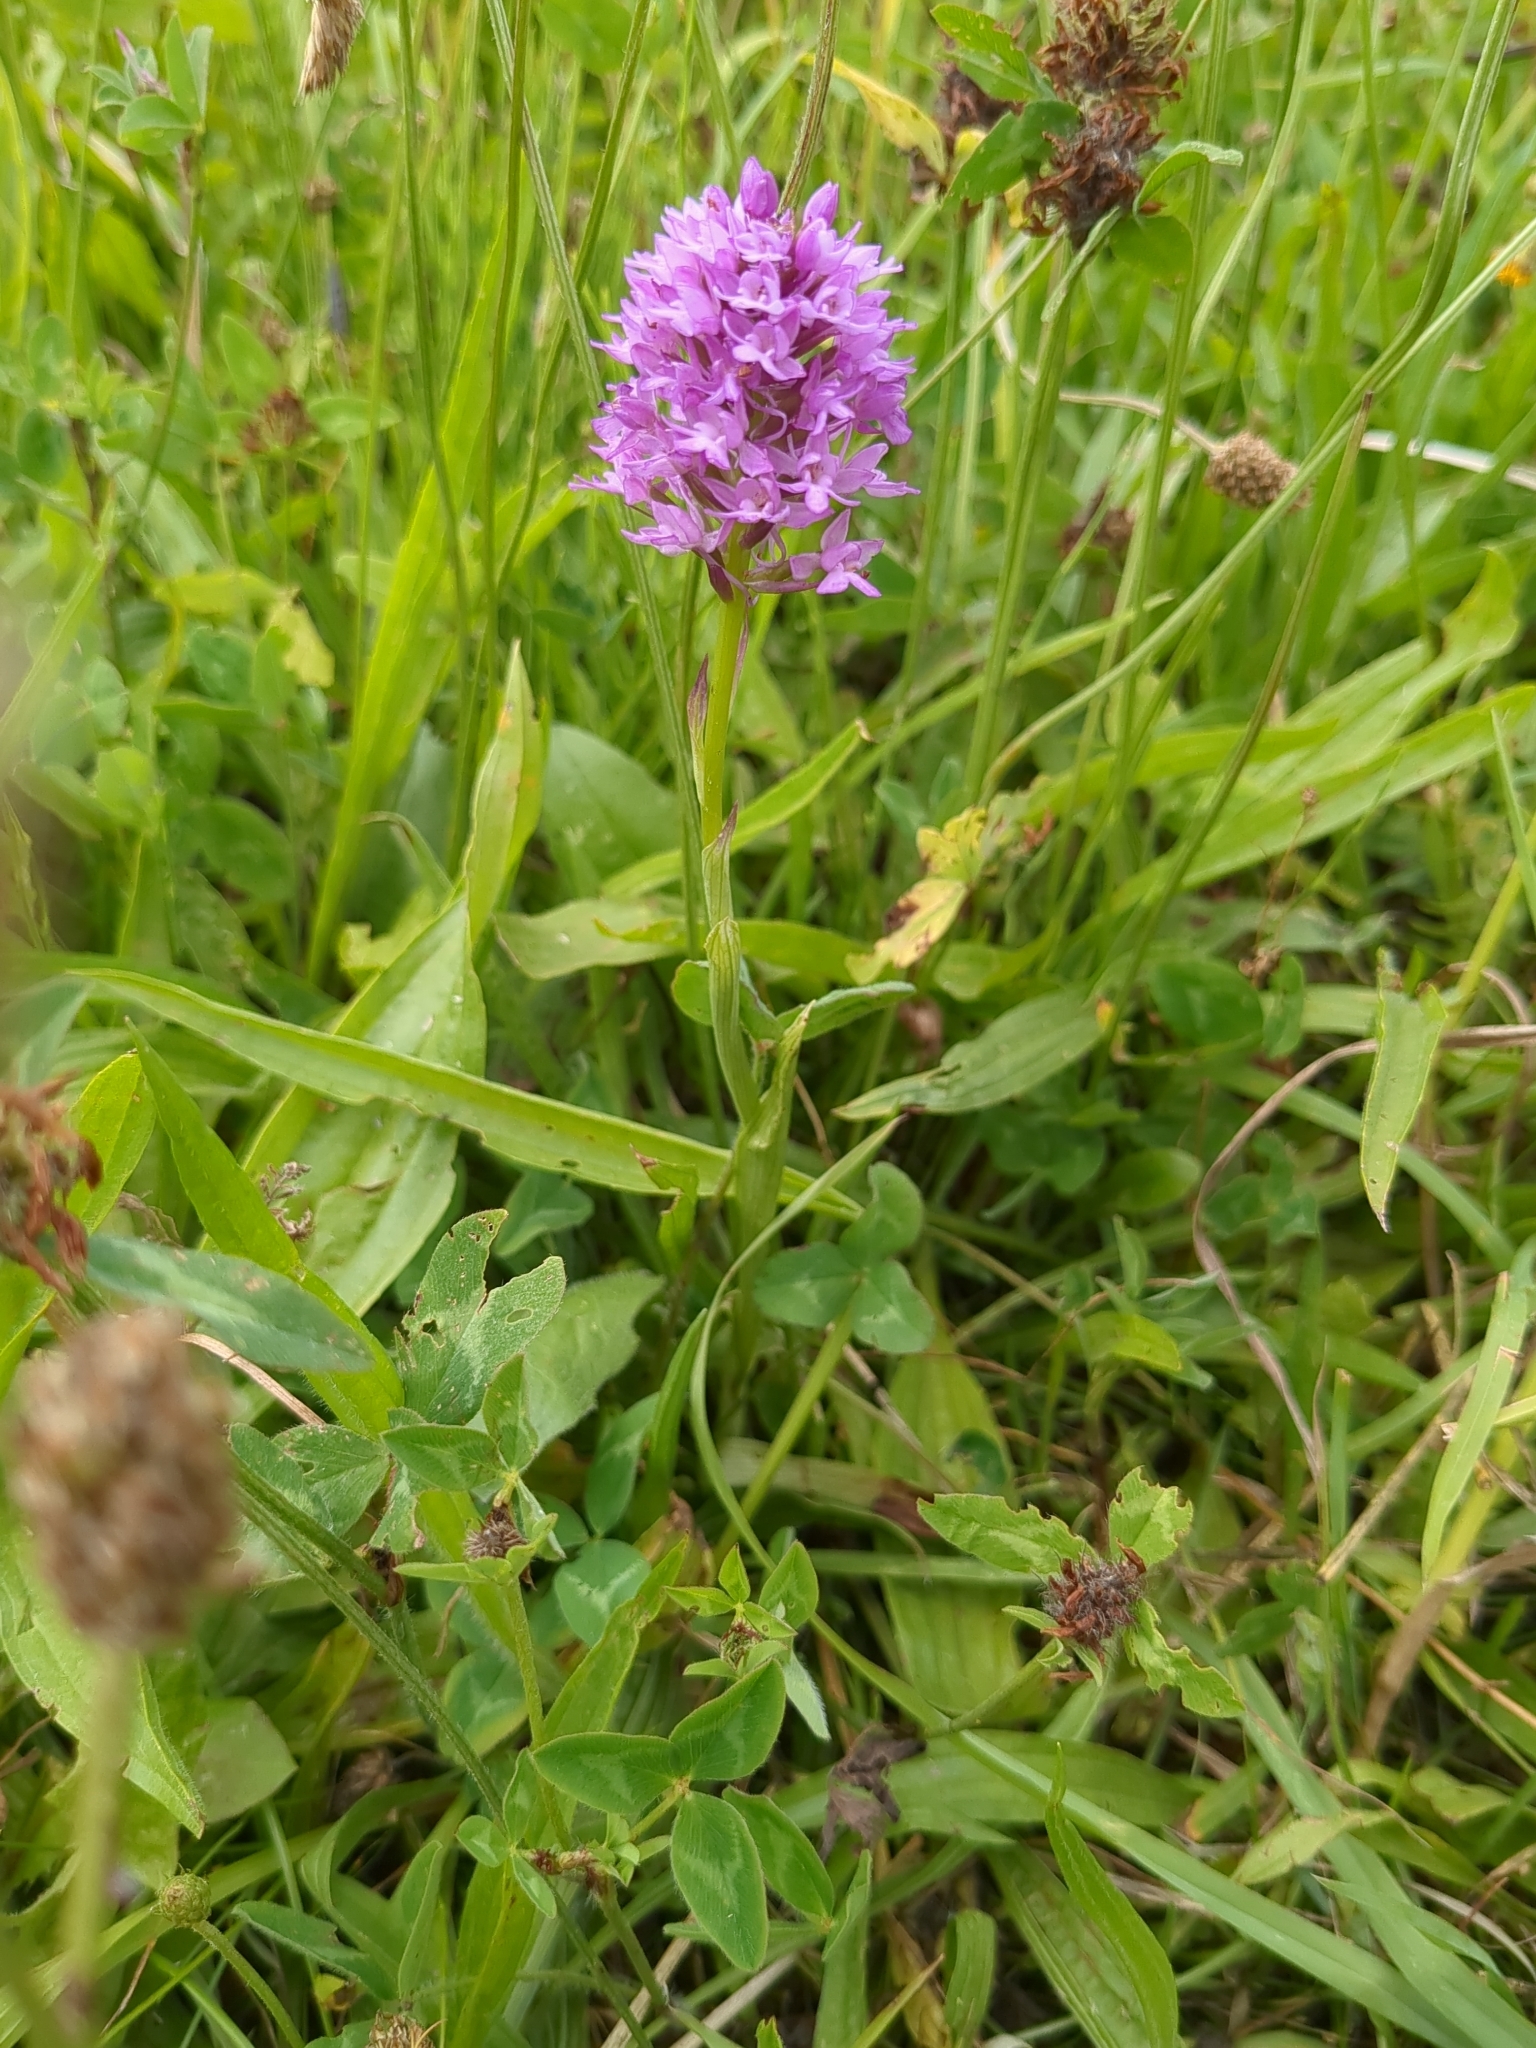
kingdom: Plantae
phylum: Tracheophyta
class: Liliopsida
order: Asparagales
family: Orchidaceae
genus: Anacamptis
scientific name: Anacamptis pyramidalis
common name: Pyramidal orchid
